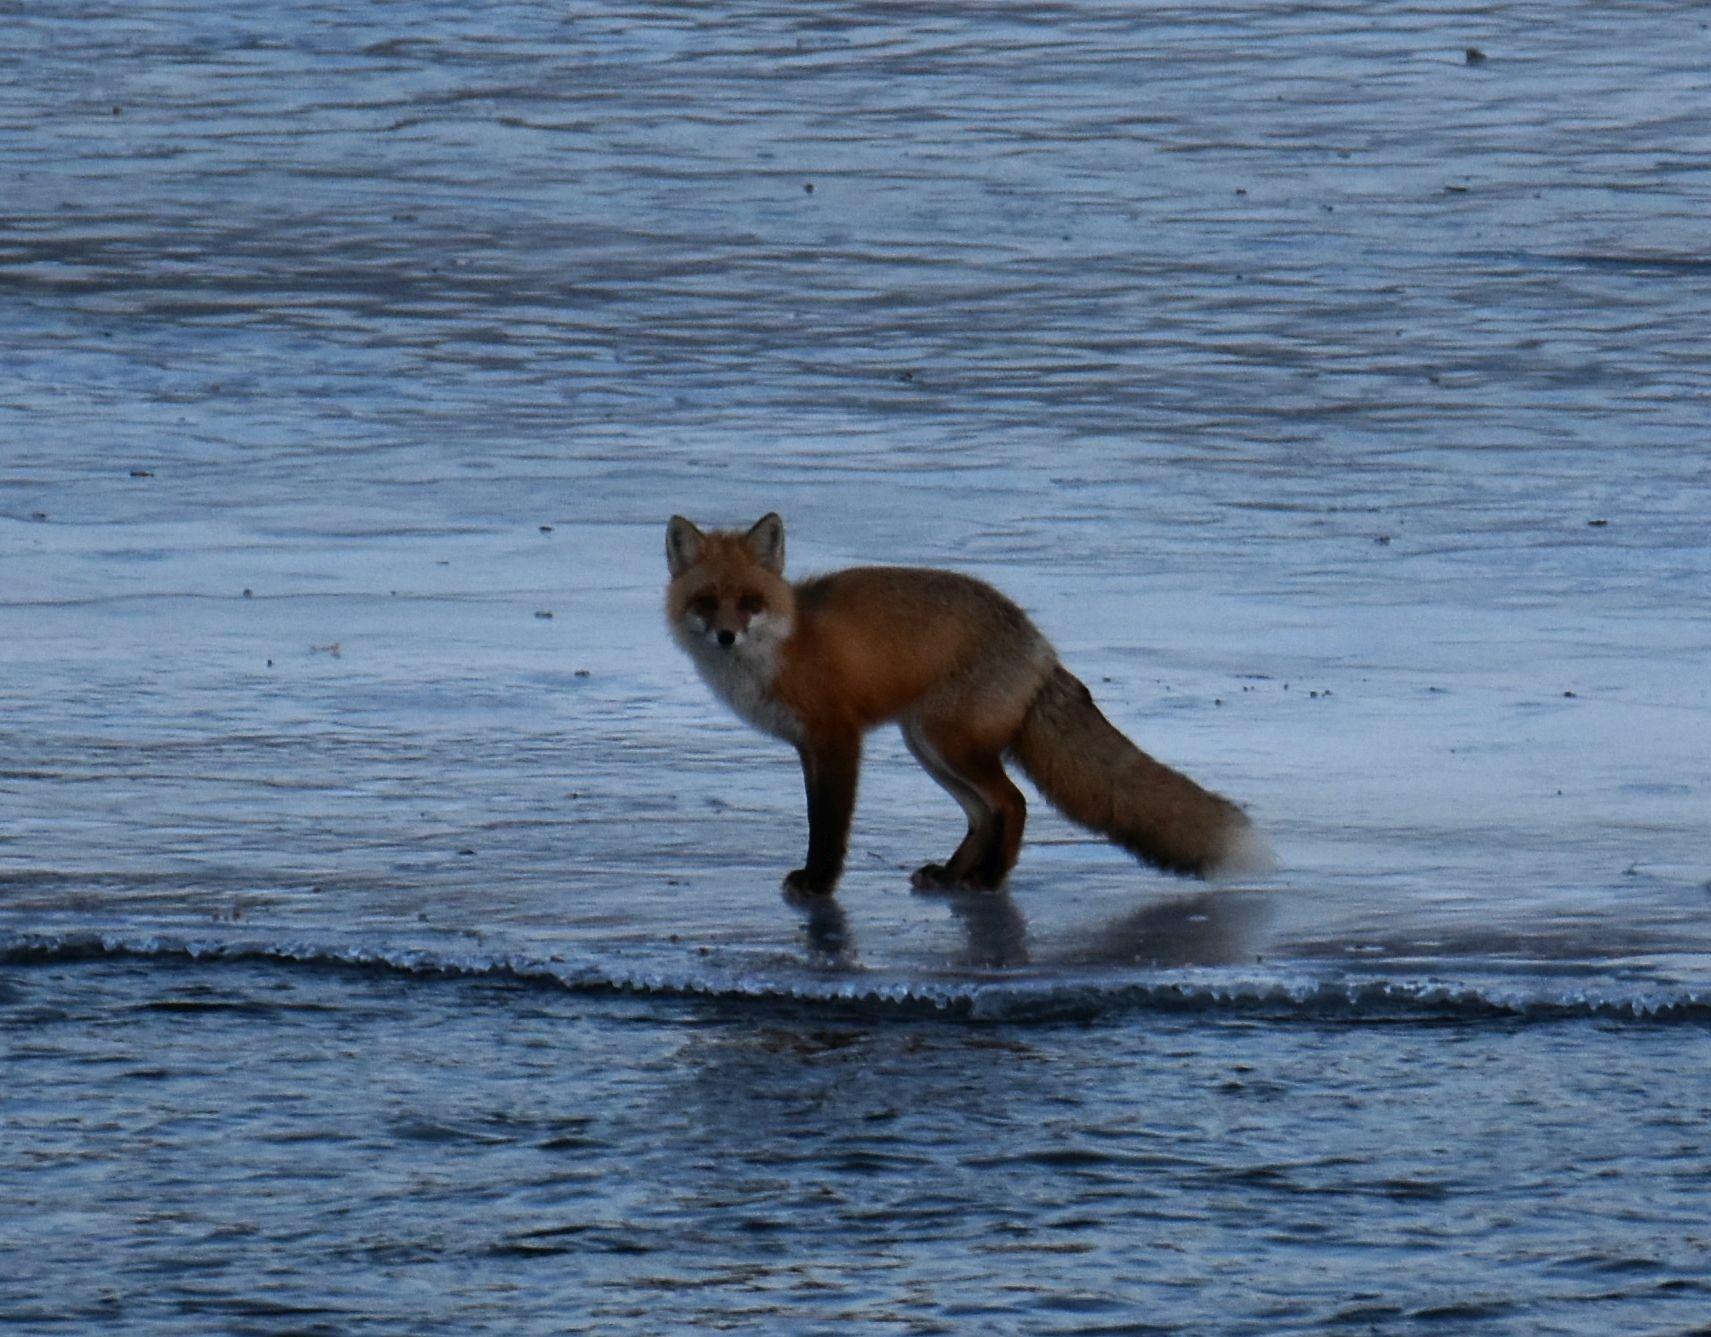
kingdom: Animalia
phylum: Chordata
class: Mammalia
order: Carnivora
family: Canidae
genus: Vulpes
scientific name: Vulpes vulpes
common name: Red fox
